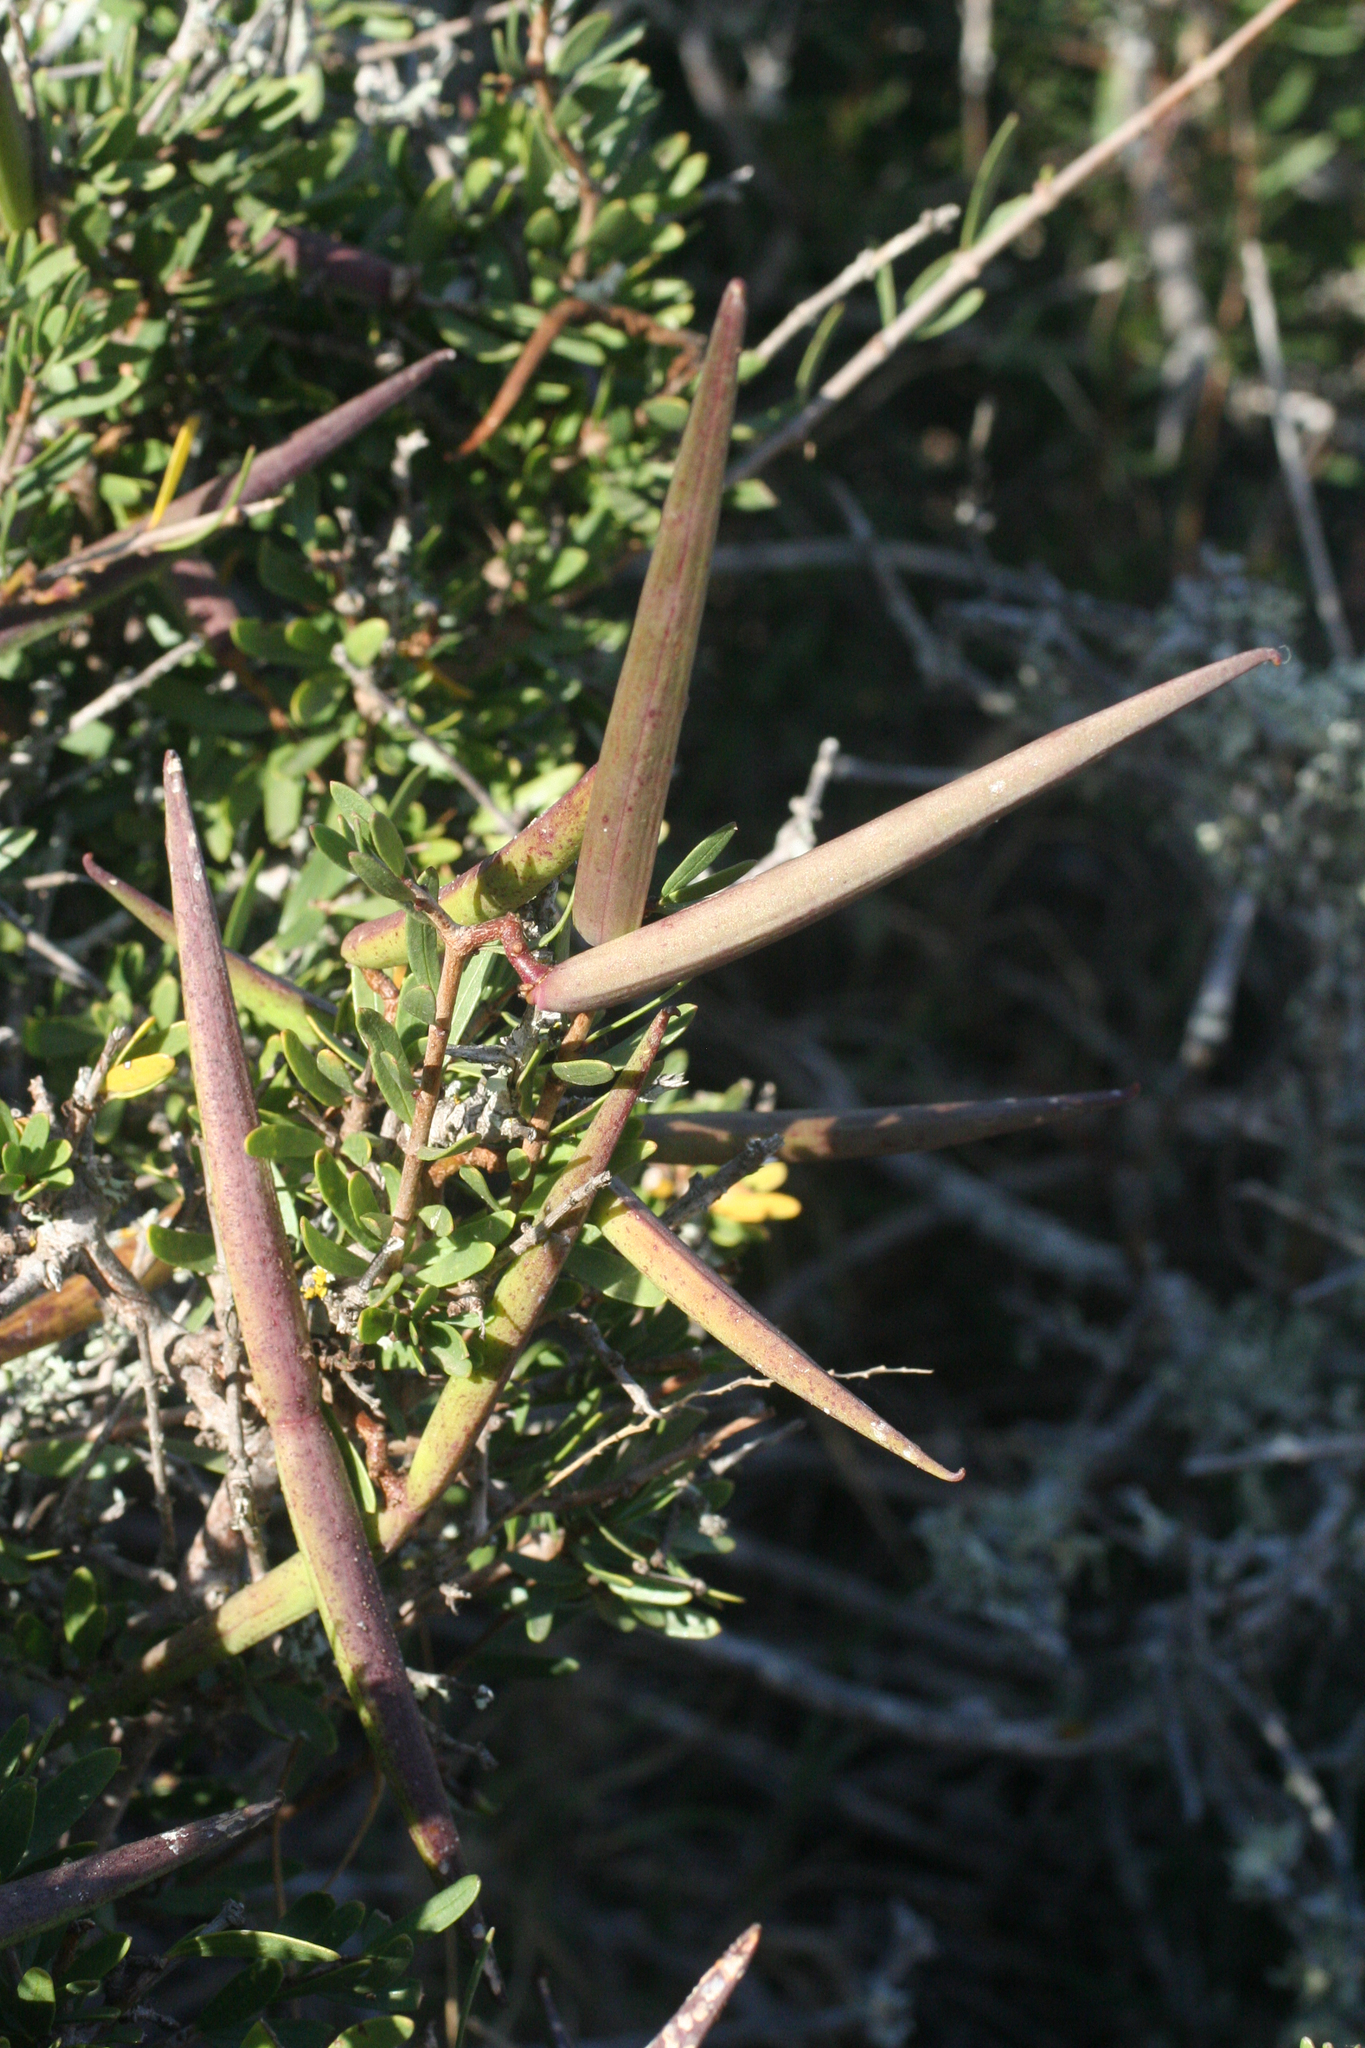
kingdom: Plantae
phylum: Tracheophyta
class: Magnoliopsida
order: Gentianales
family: Apocynaceae
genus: Periploca
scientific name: Periploca laevigata
